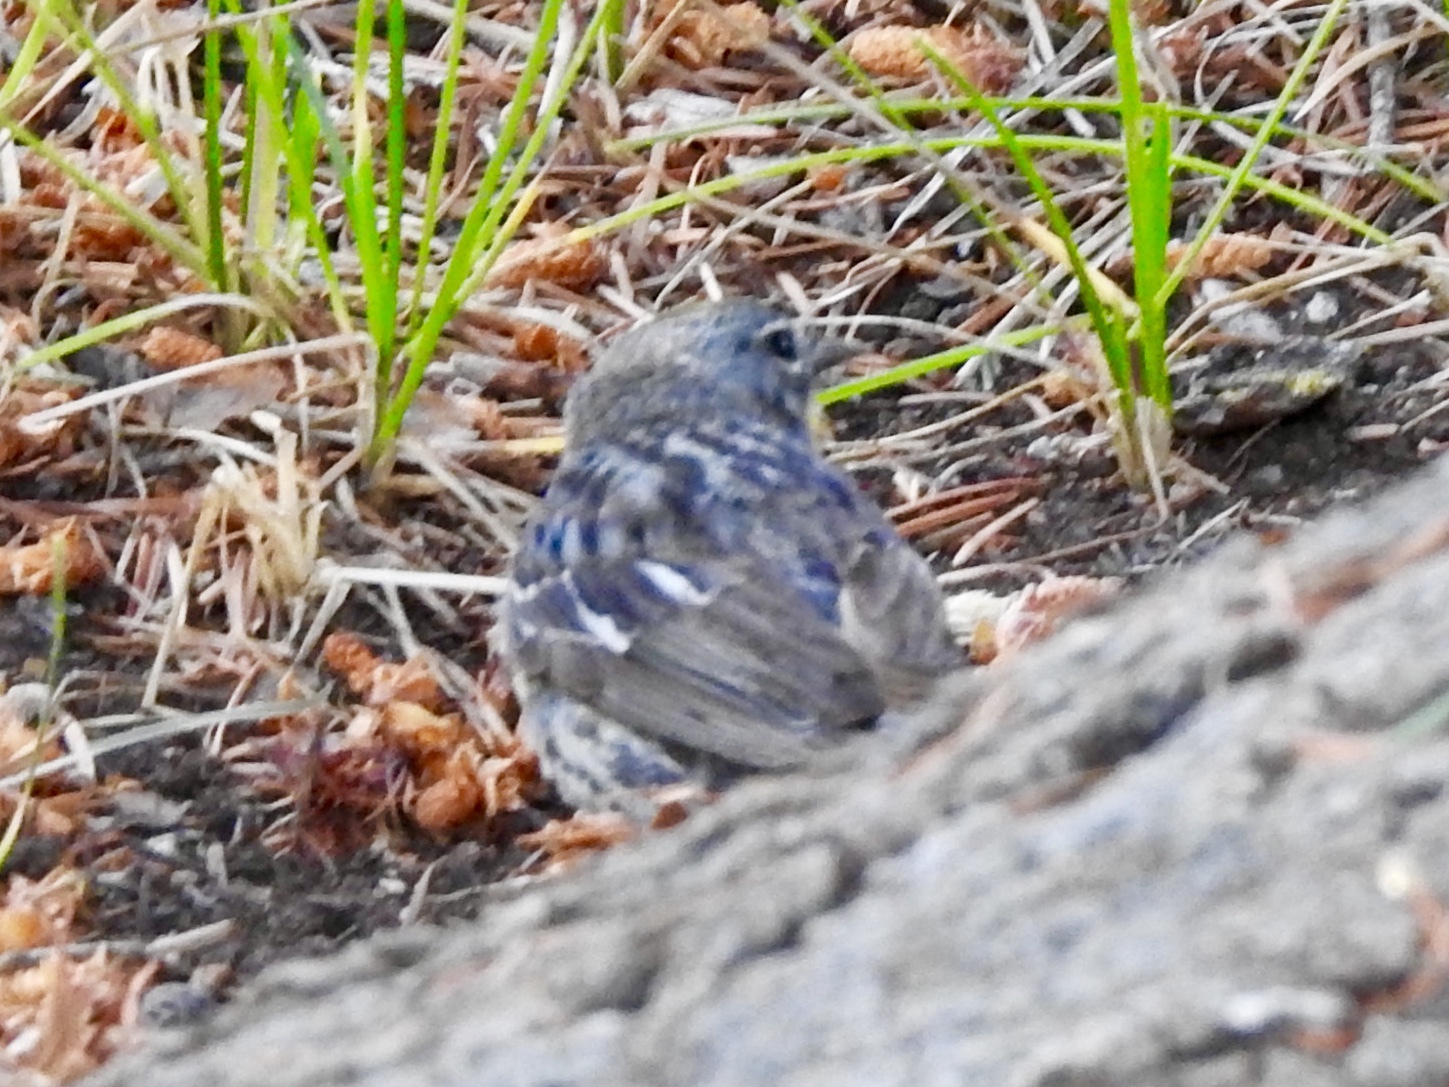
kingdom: Animalia
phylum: Chordata
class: Aves
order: Passeriformes
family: Parulidae
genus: Setophaga
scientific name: Setophaga coronata
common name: Myrtle warbler
